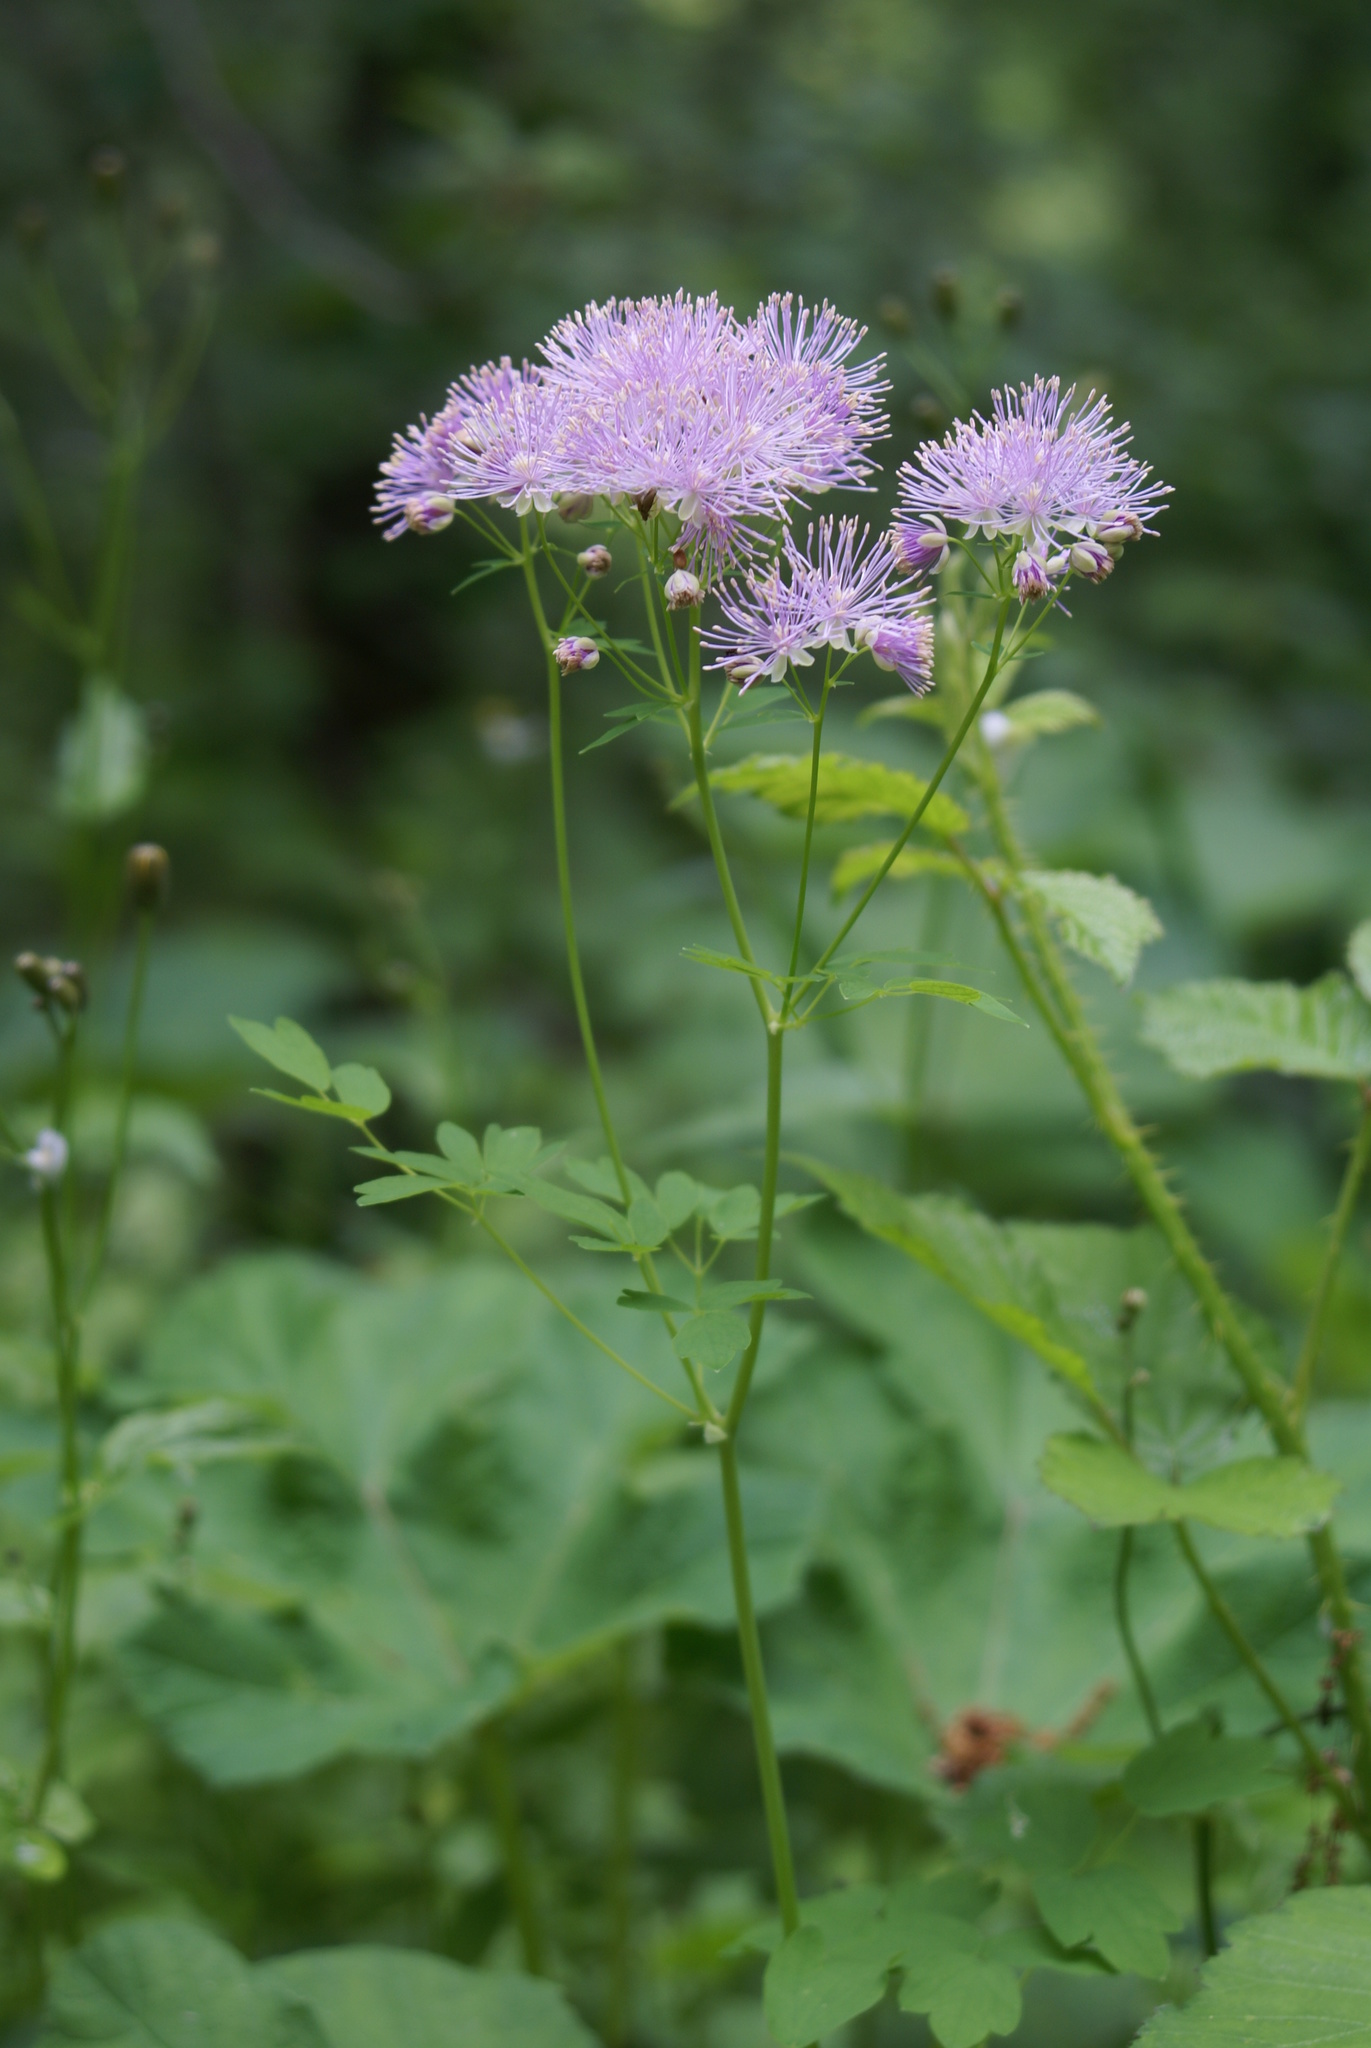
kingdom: Plantae
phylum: Tracheophyta
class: Magnoliopsida
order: Ranunculales
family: Ranunculaceae
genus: Thalictrum
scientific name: Thalictrum aquilegiifolium
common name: French meadow-rue
